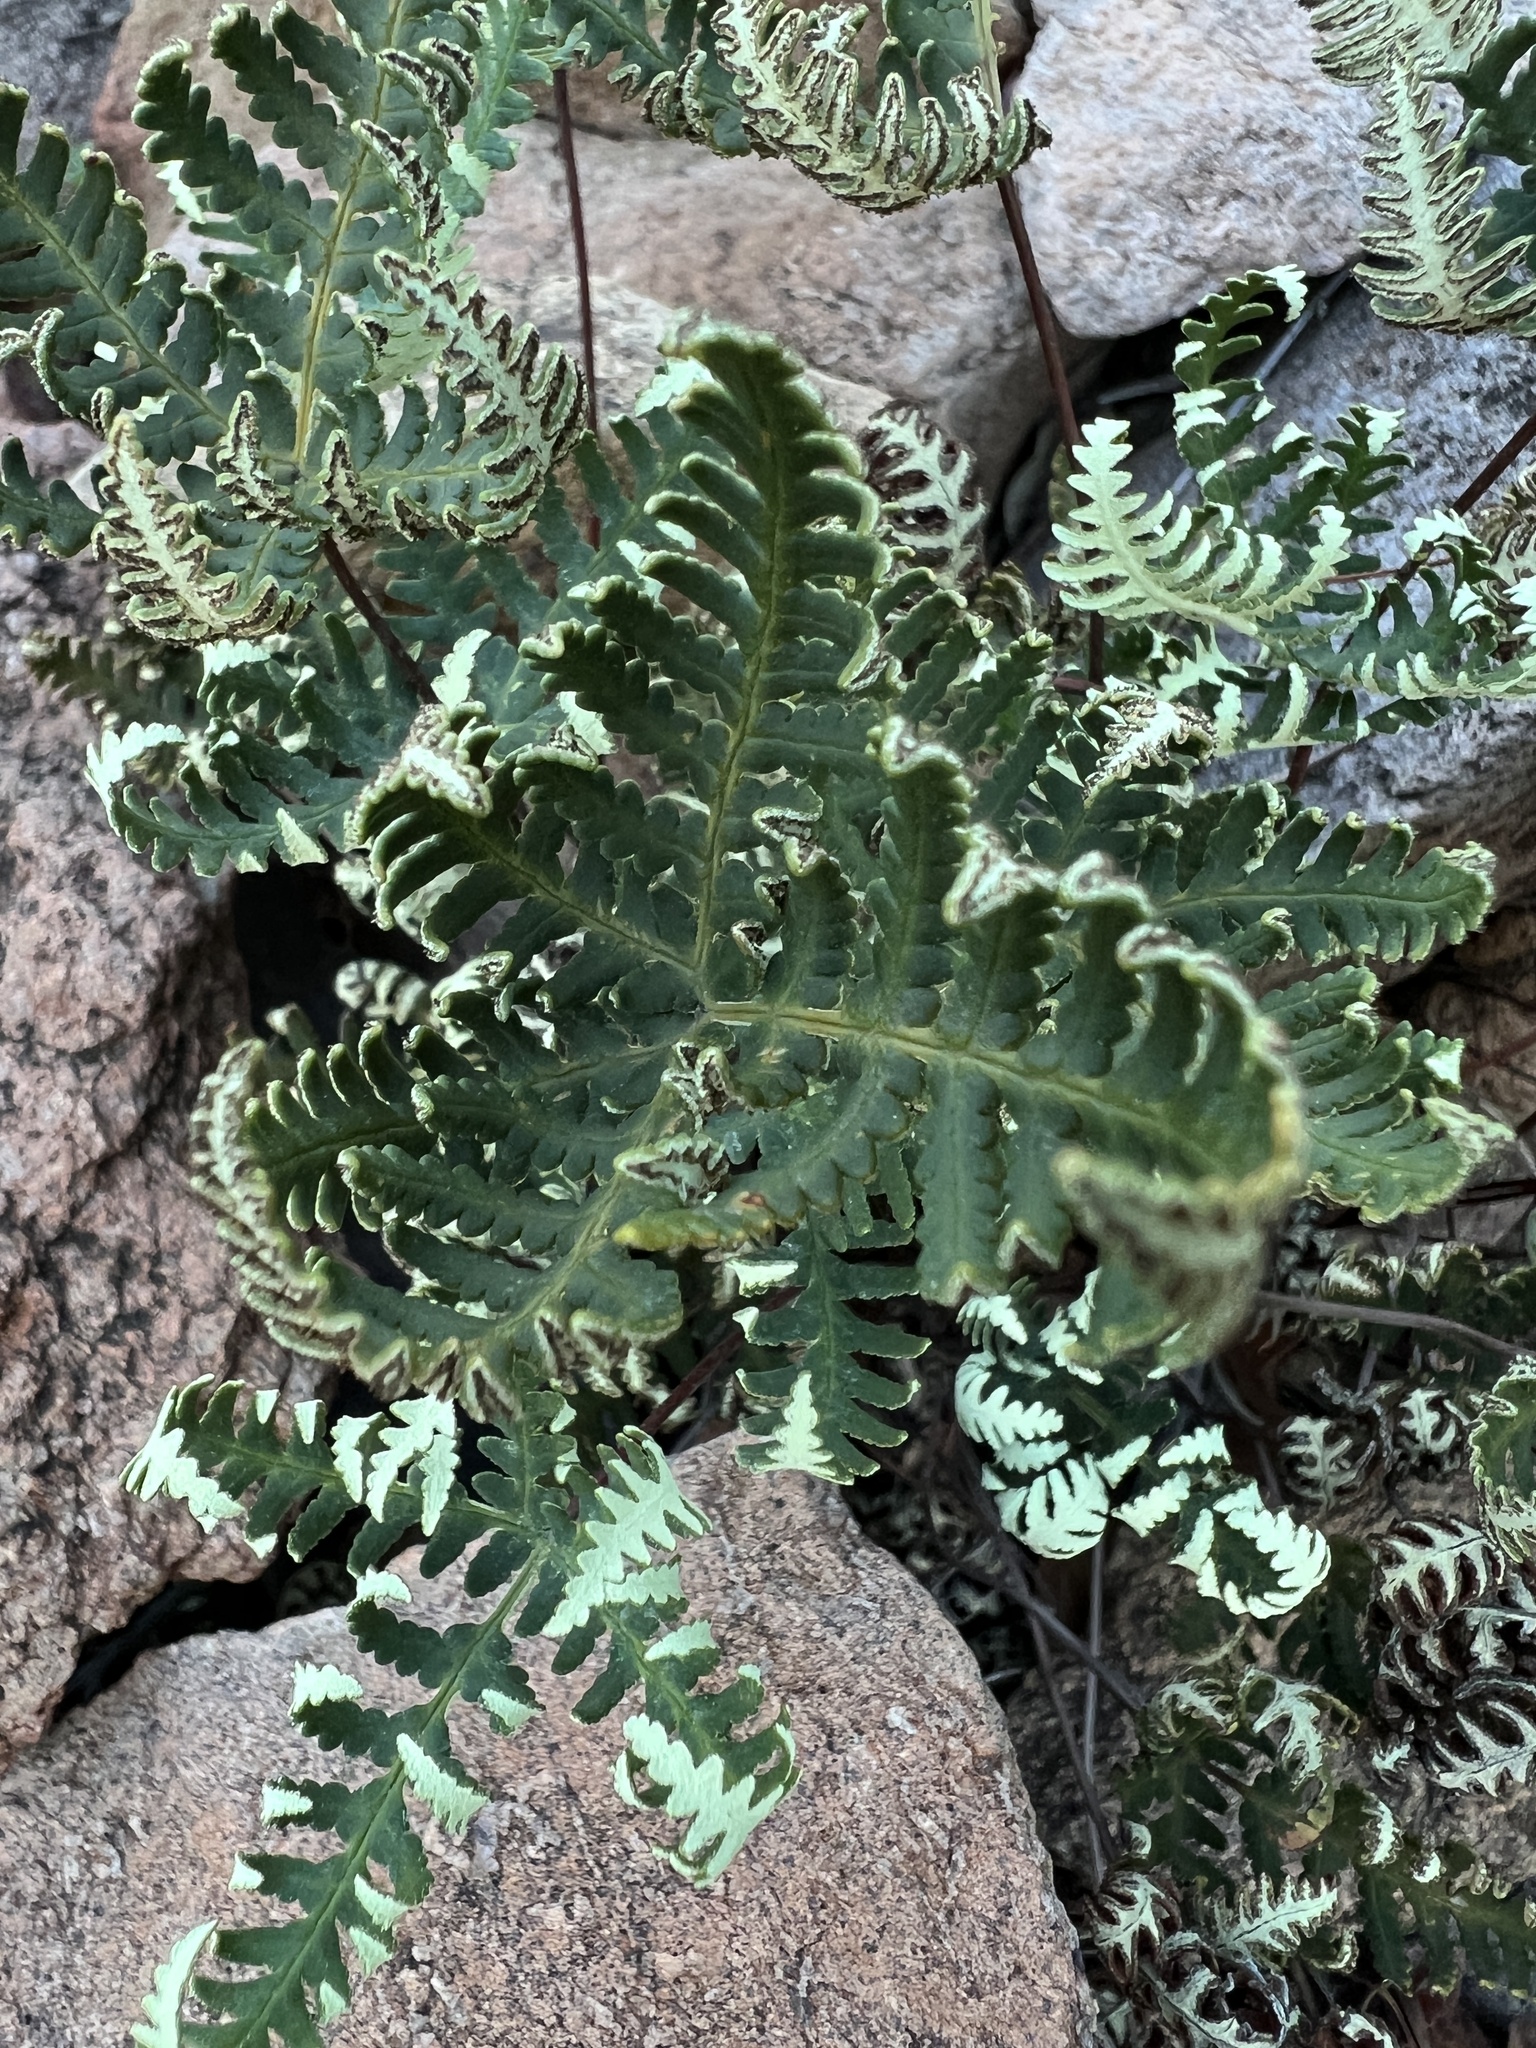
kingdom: Plantae
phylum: Tracheophyta
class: Polypodiopsida
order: Polypodiales
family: Pteridaceae
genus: Notholaena
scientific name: Notholaena standleyi
